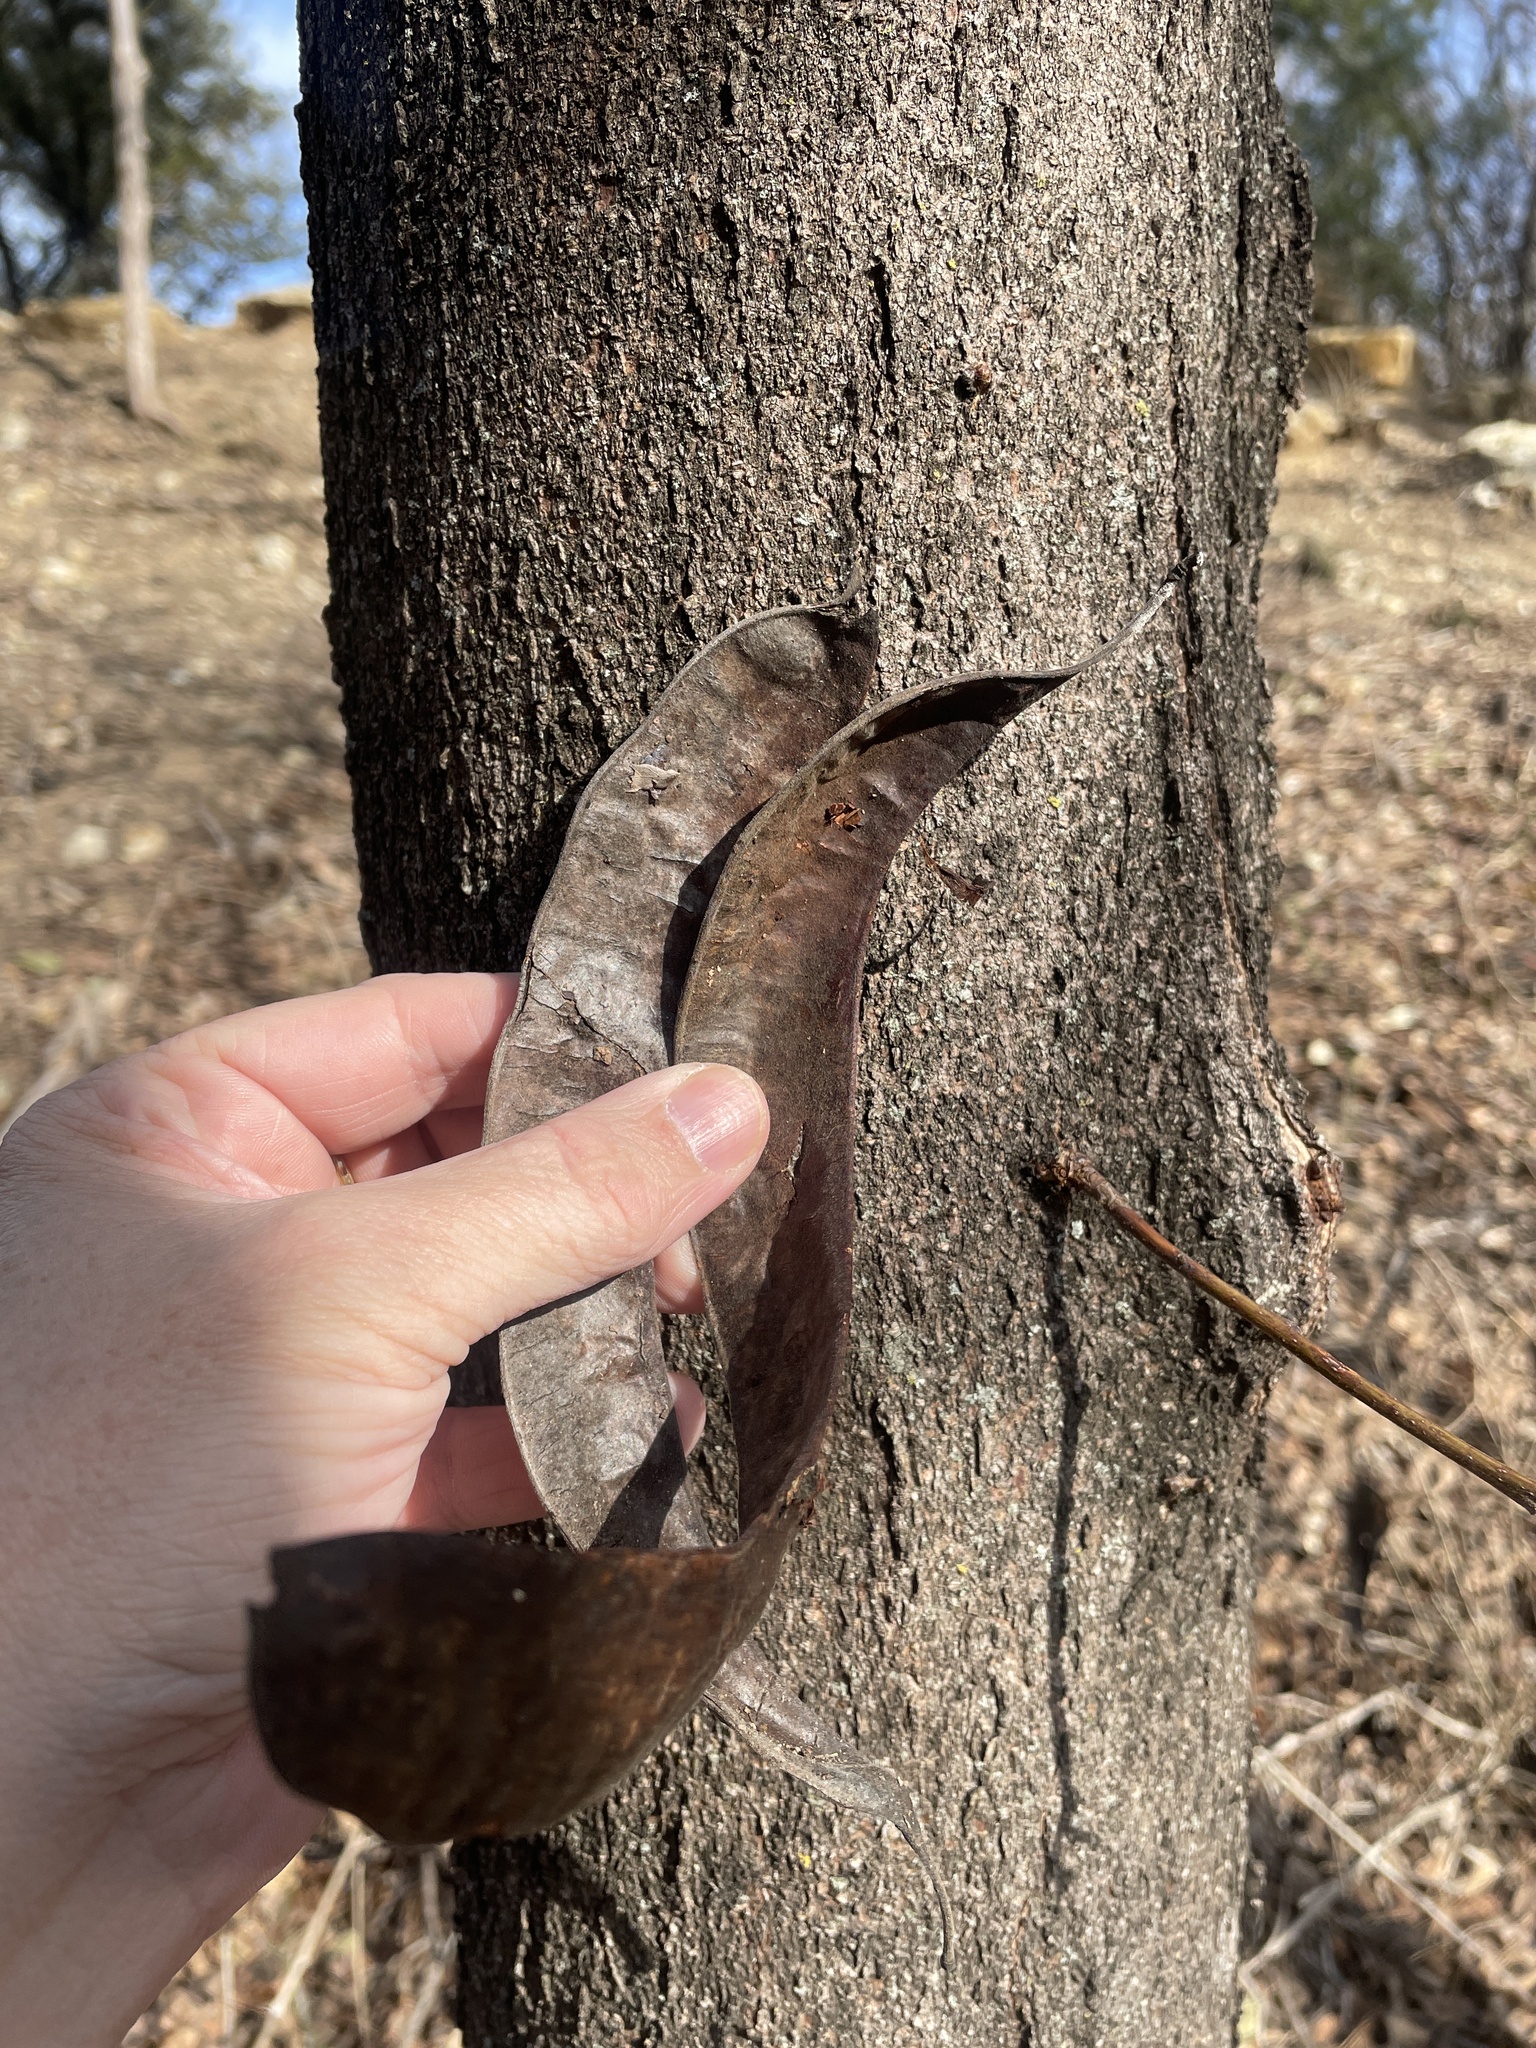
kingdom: Plantae
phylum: Tracheophyta
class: Magnoliopsida
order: Fabales
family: Fabaceae
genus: Gleditsia
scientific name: Gleditsia triacanthos
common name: Common honeylocust
